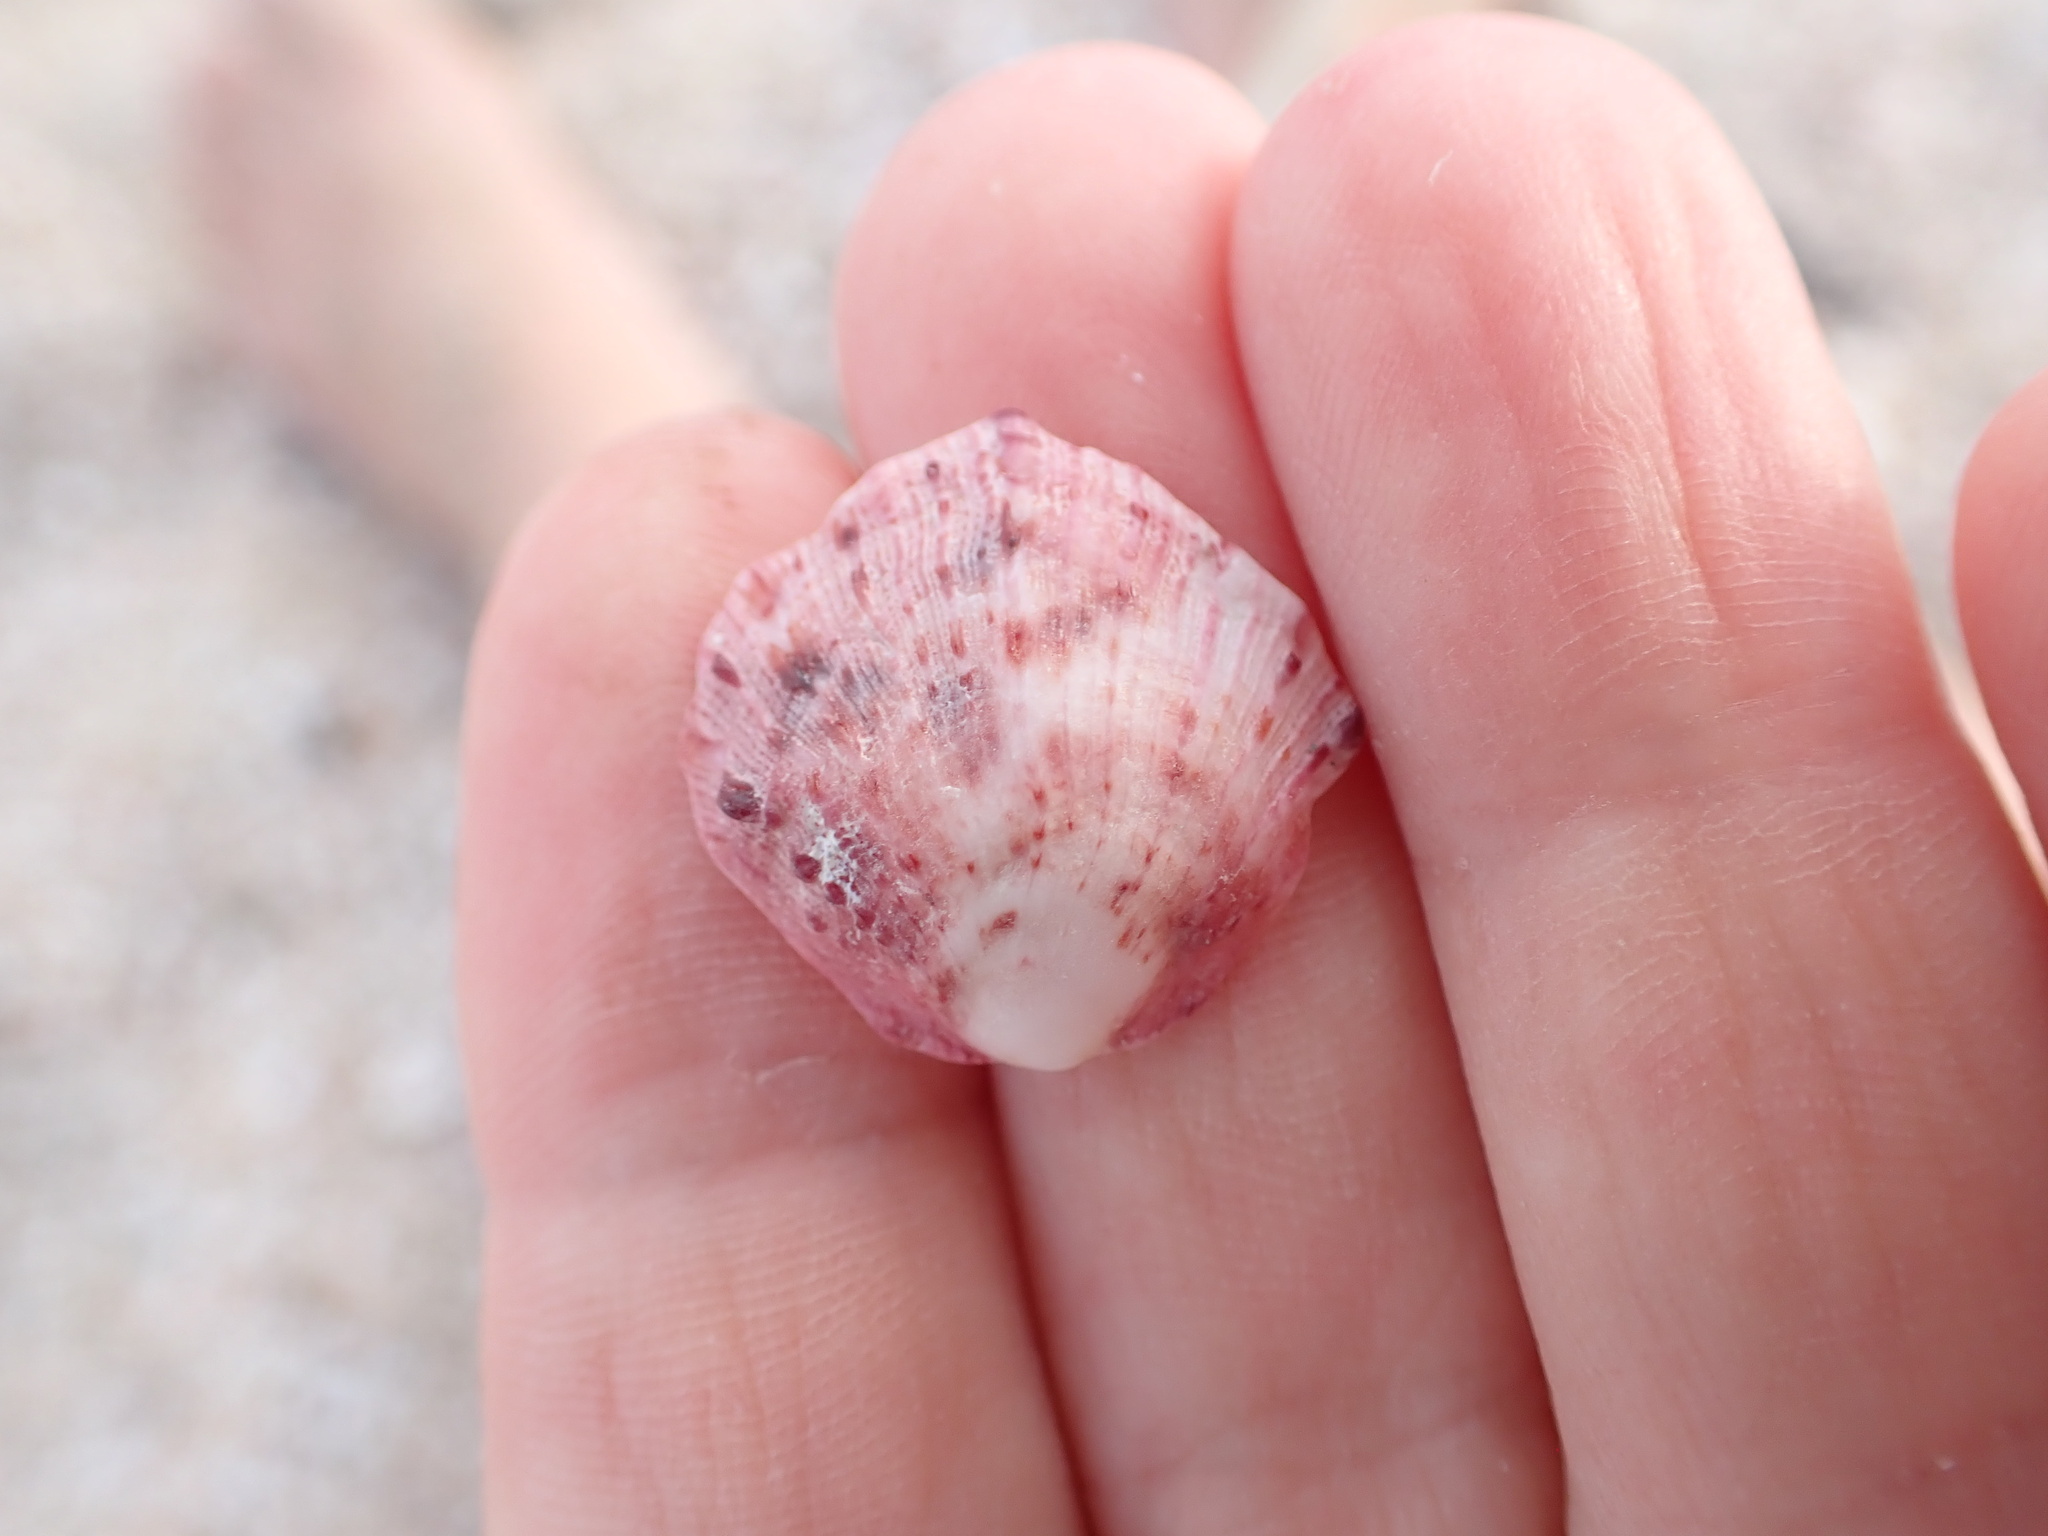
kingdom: Animalia
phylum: Mollusca
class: Bivalvia
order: Pectinida
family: Spondylidae
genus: Spondylus
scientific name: Spondylus gaederopus
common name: European thorny oyster
